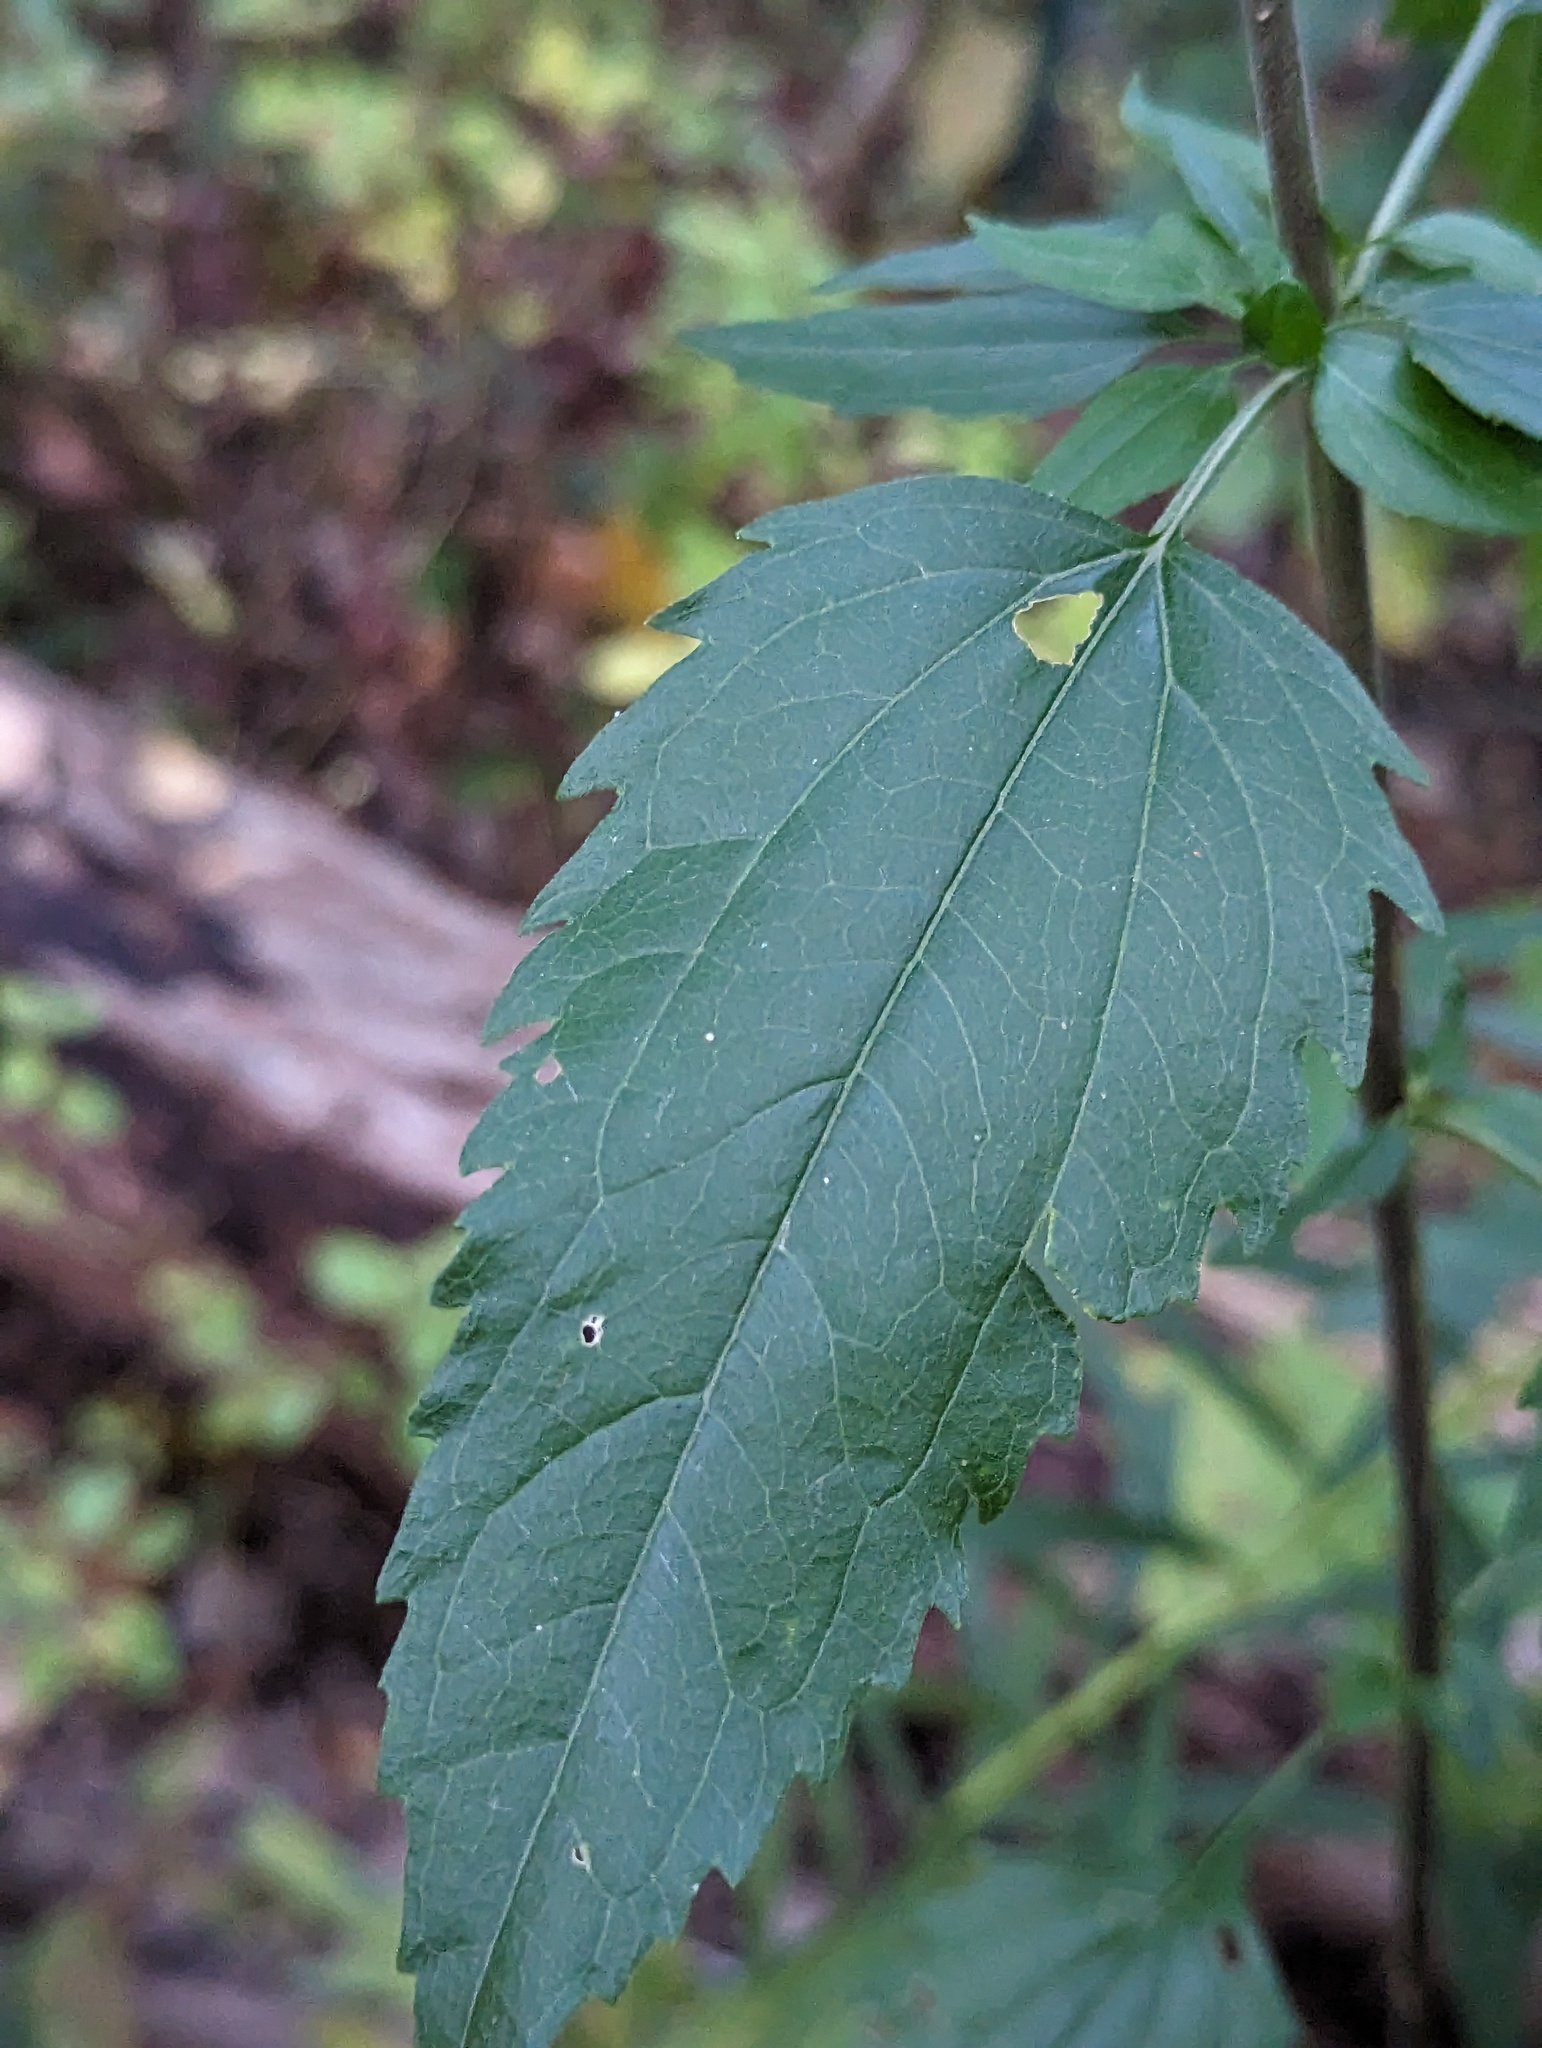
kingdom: Plantae
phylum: Tracheophyta
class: Magnoliopsida
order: Asterales
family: Asteraceae
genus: Eupatorium
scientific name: Eupatorium serotinum
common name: Late boneset
